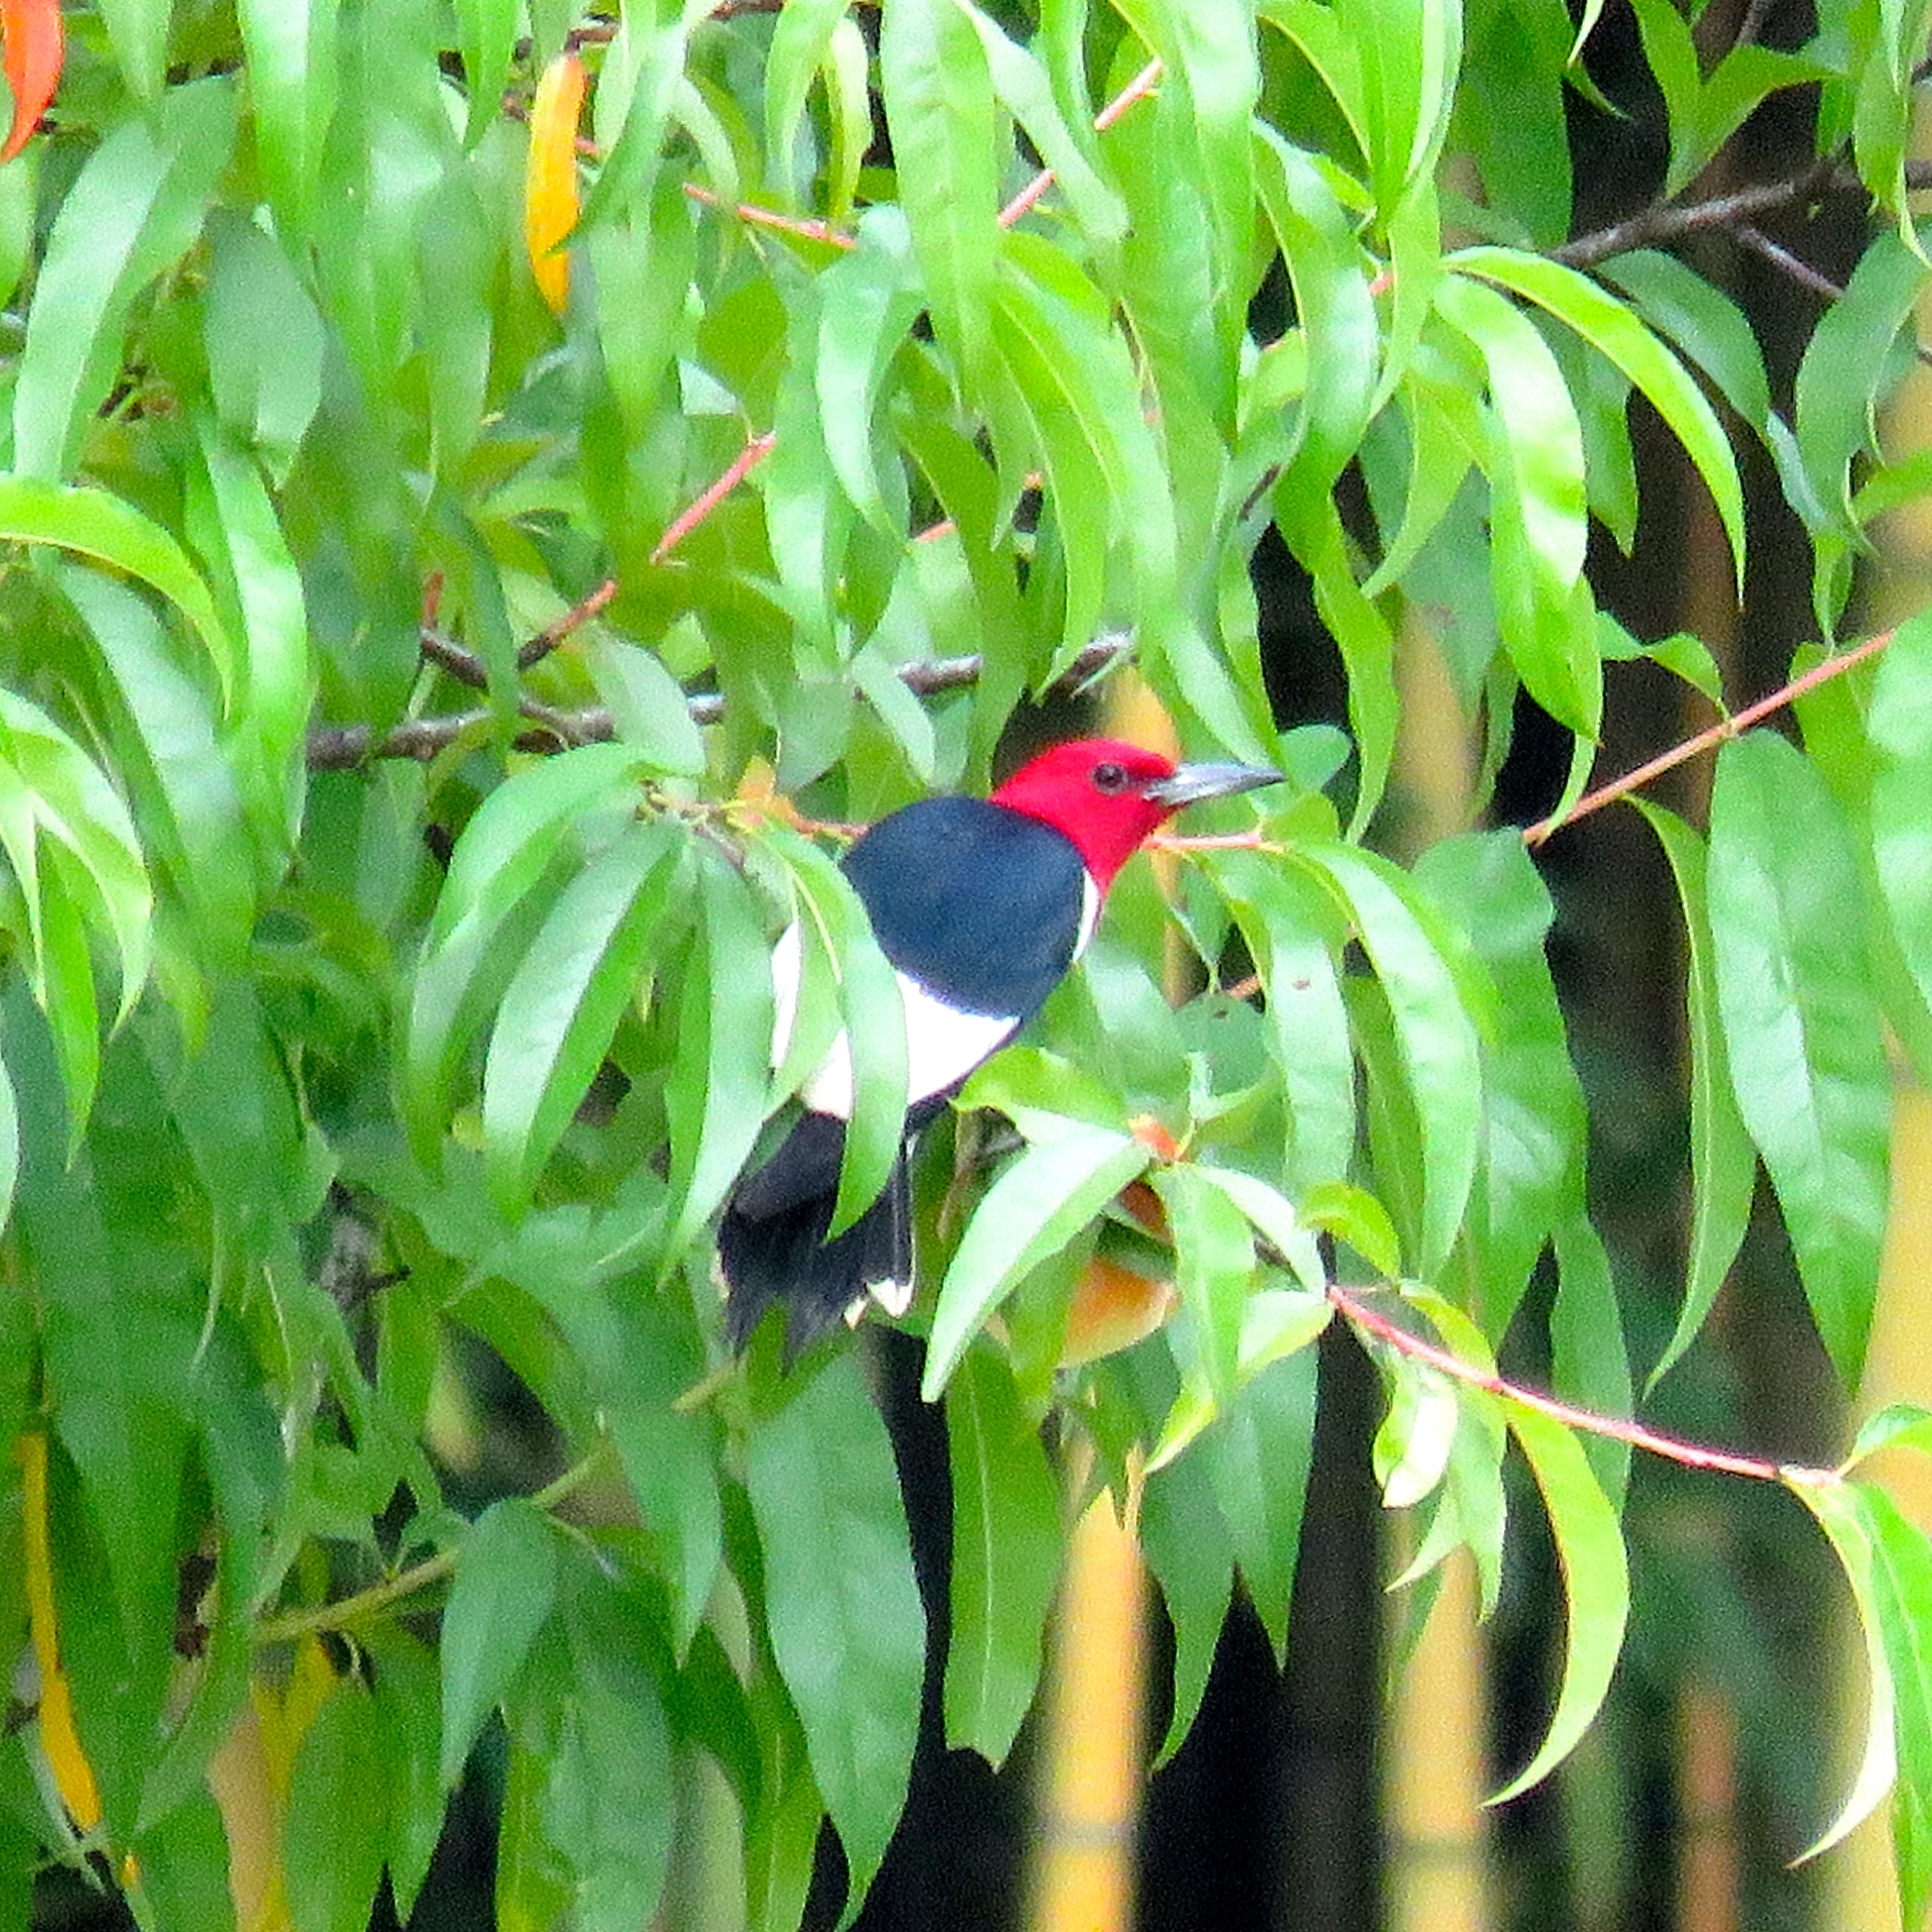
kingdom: Animalia
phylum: Chordata
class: Aves
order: Piciformes
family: Picidae
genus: Melanerpes
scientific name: Melanerpes erythrocephalus
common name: Red-headed woodpecker
